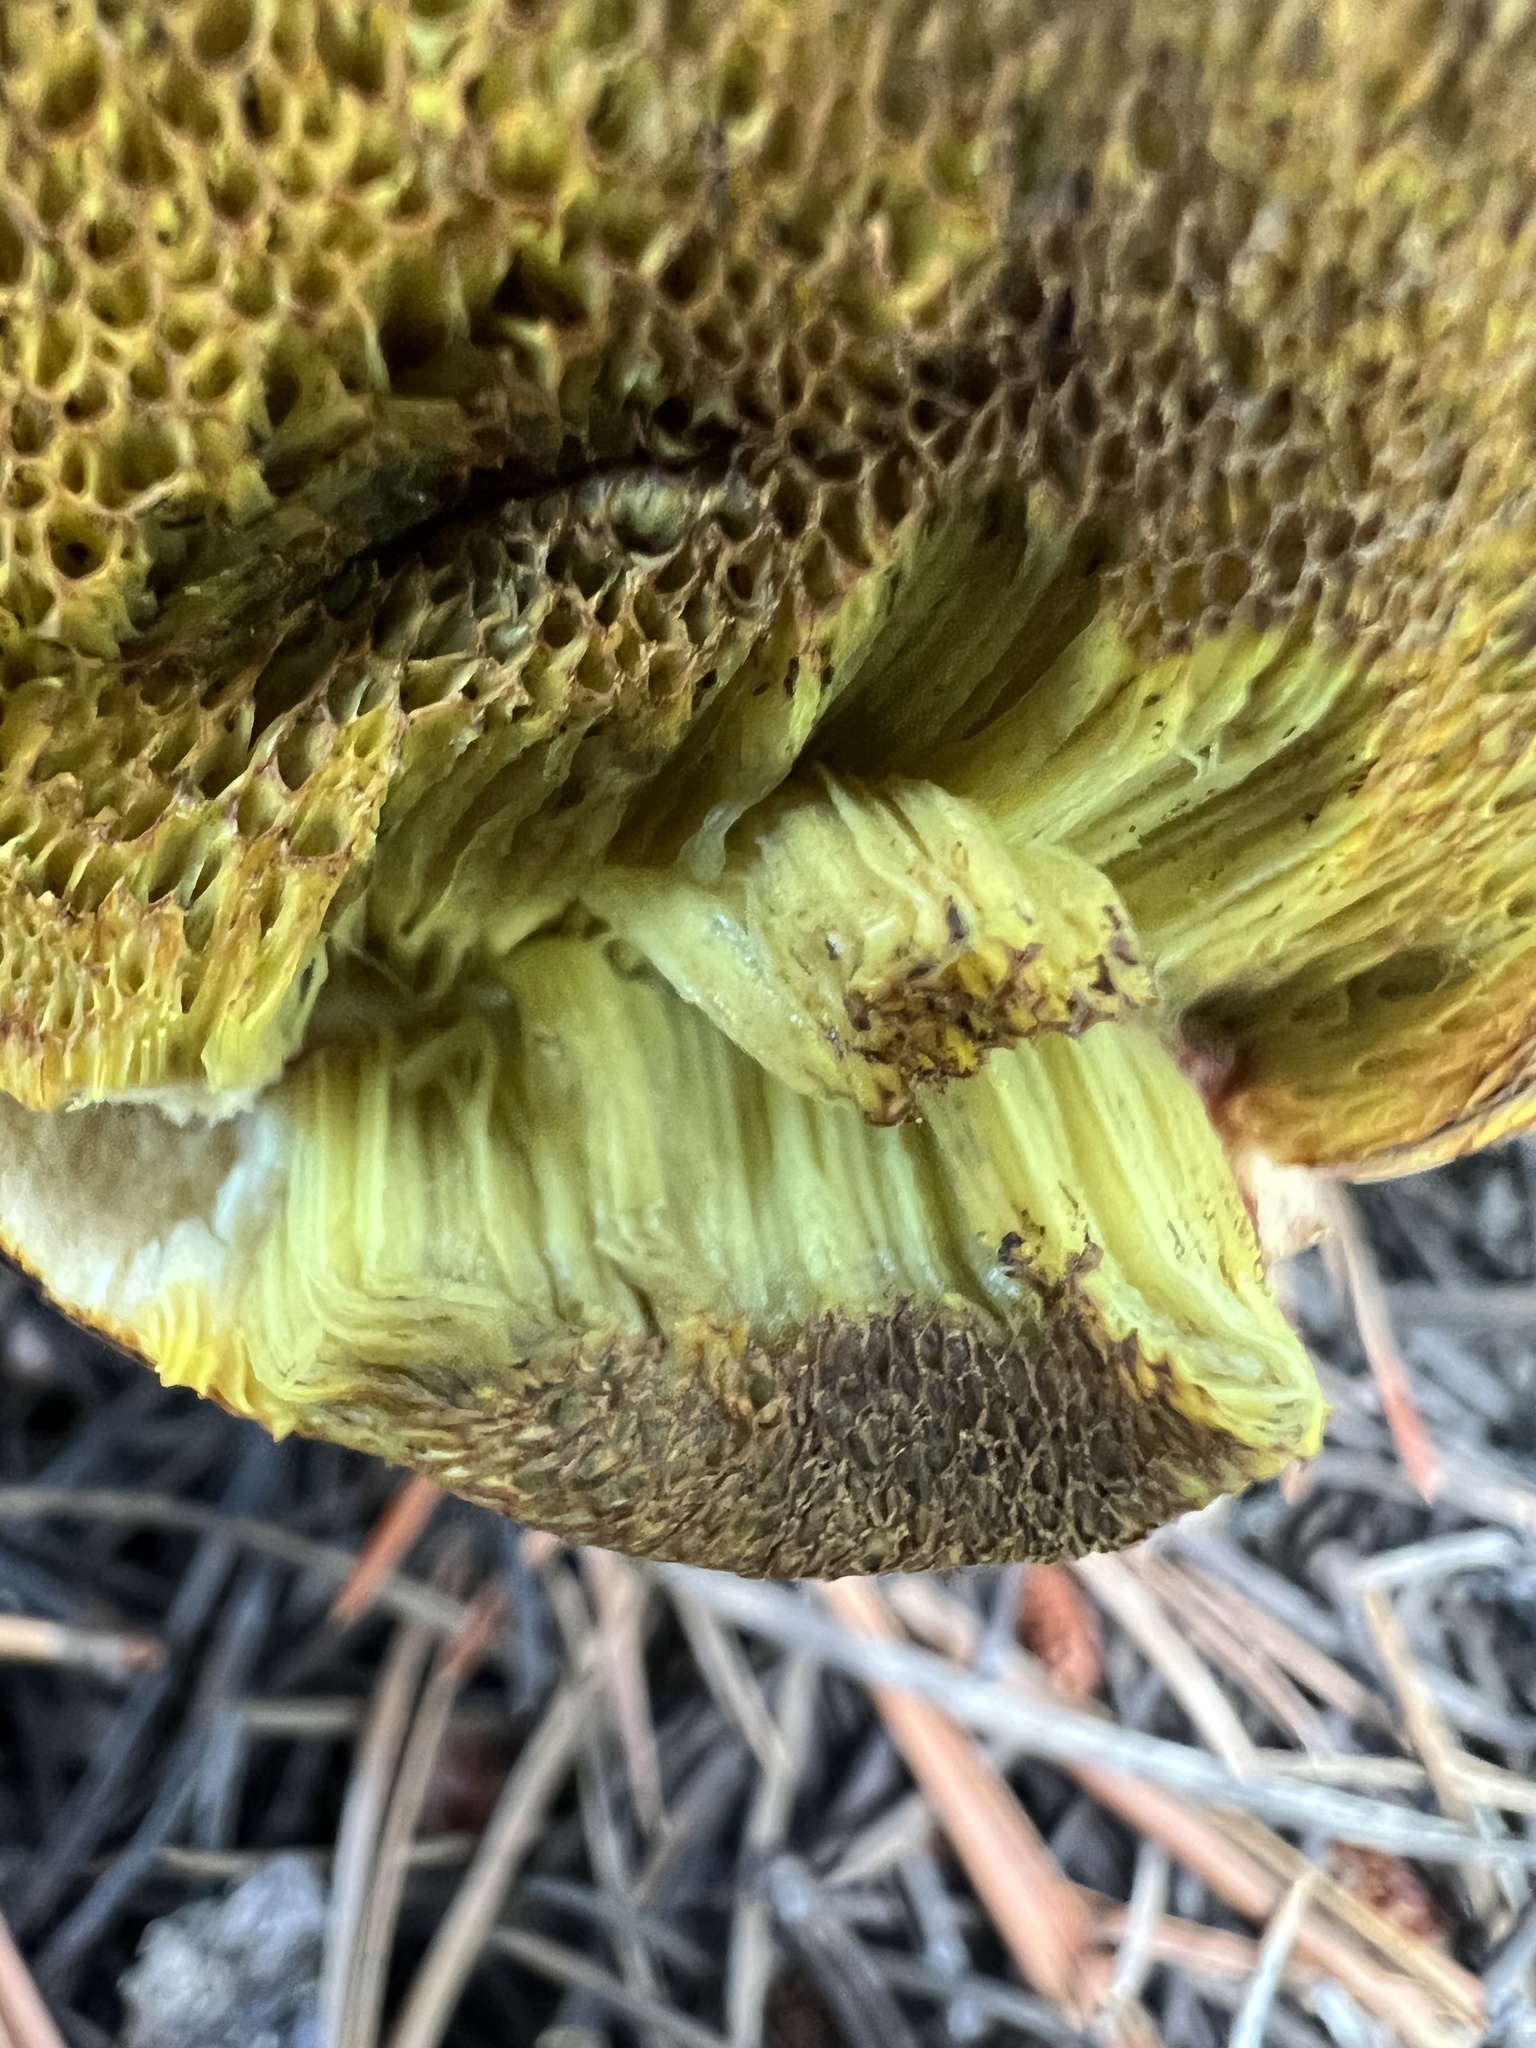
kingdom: Fungi
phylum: Basidiomycota
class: Agaricomycetes
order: Boletales
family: Boletaceae
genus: Xerocomus
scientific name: Xerocomus subtomentosus
